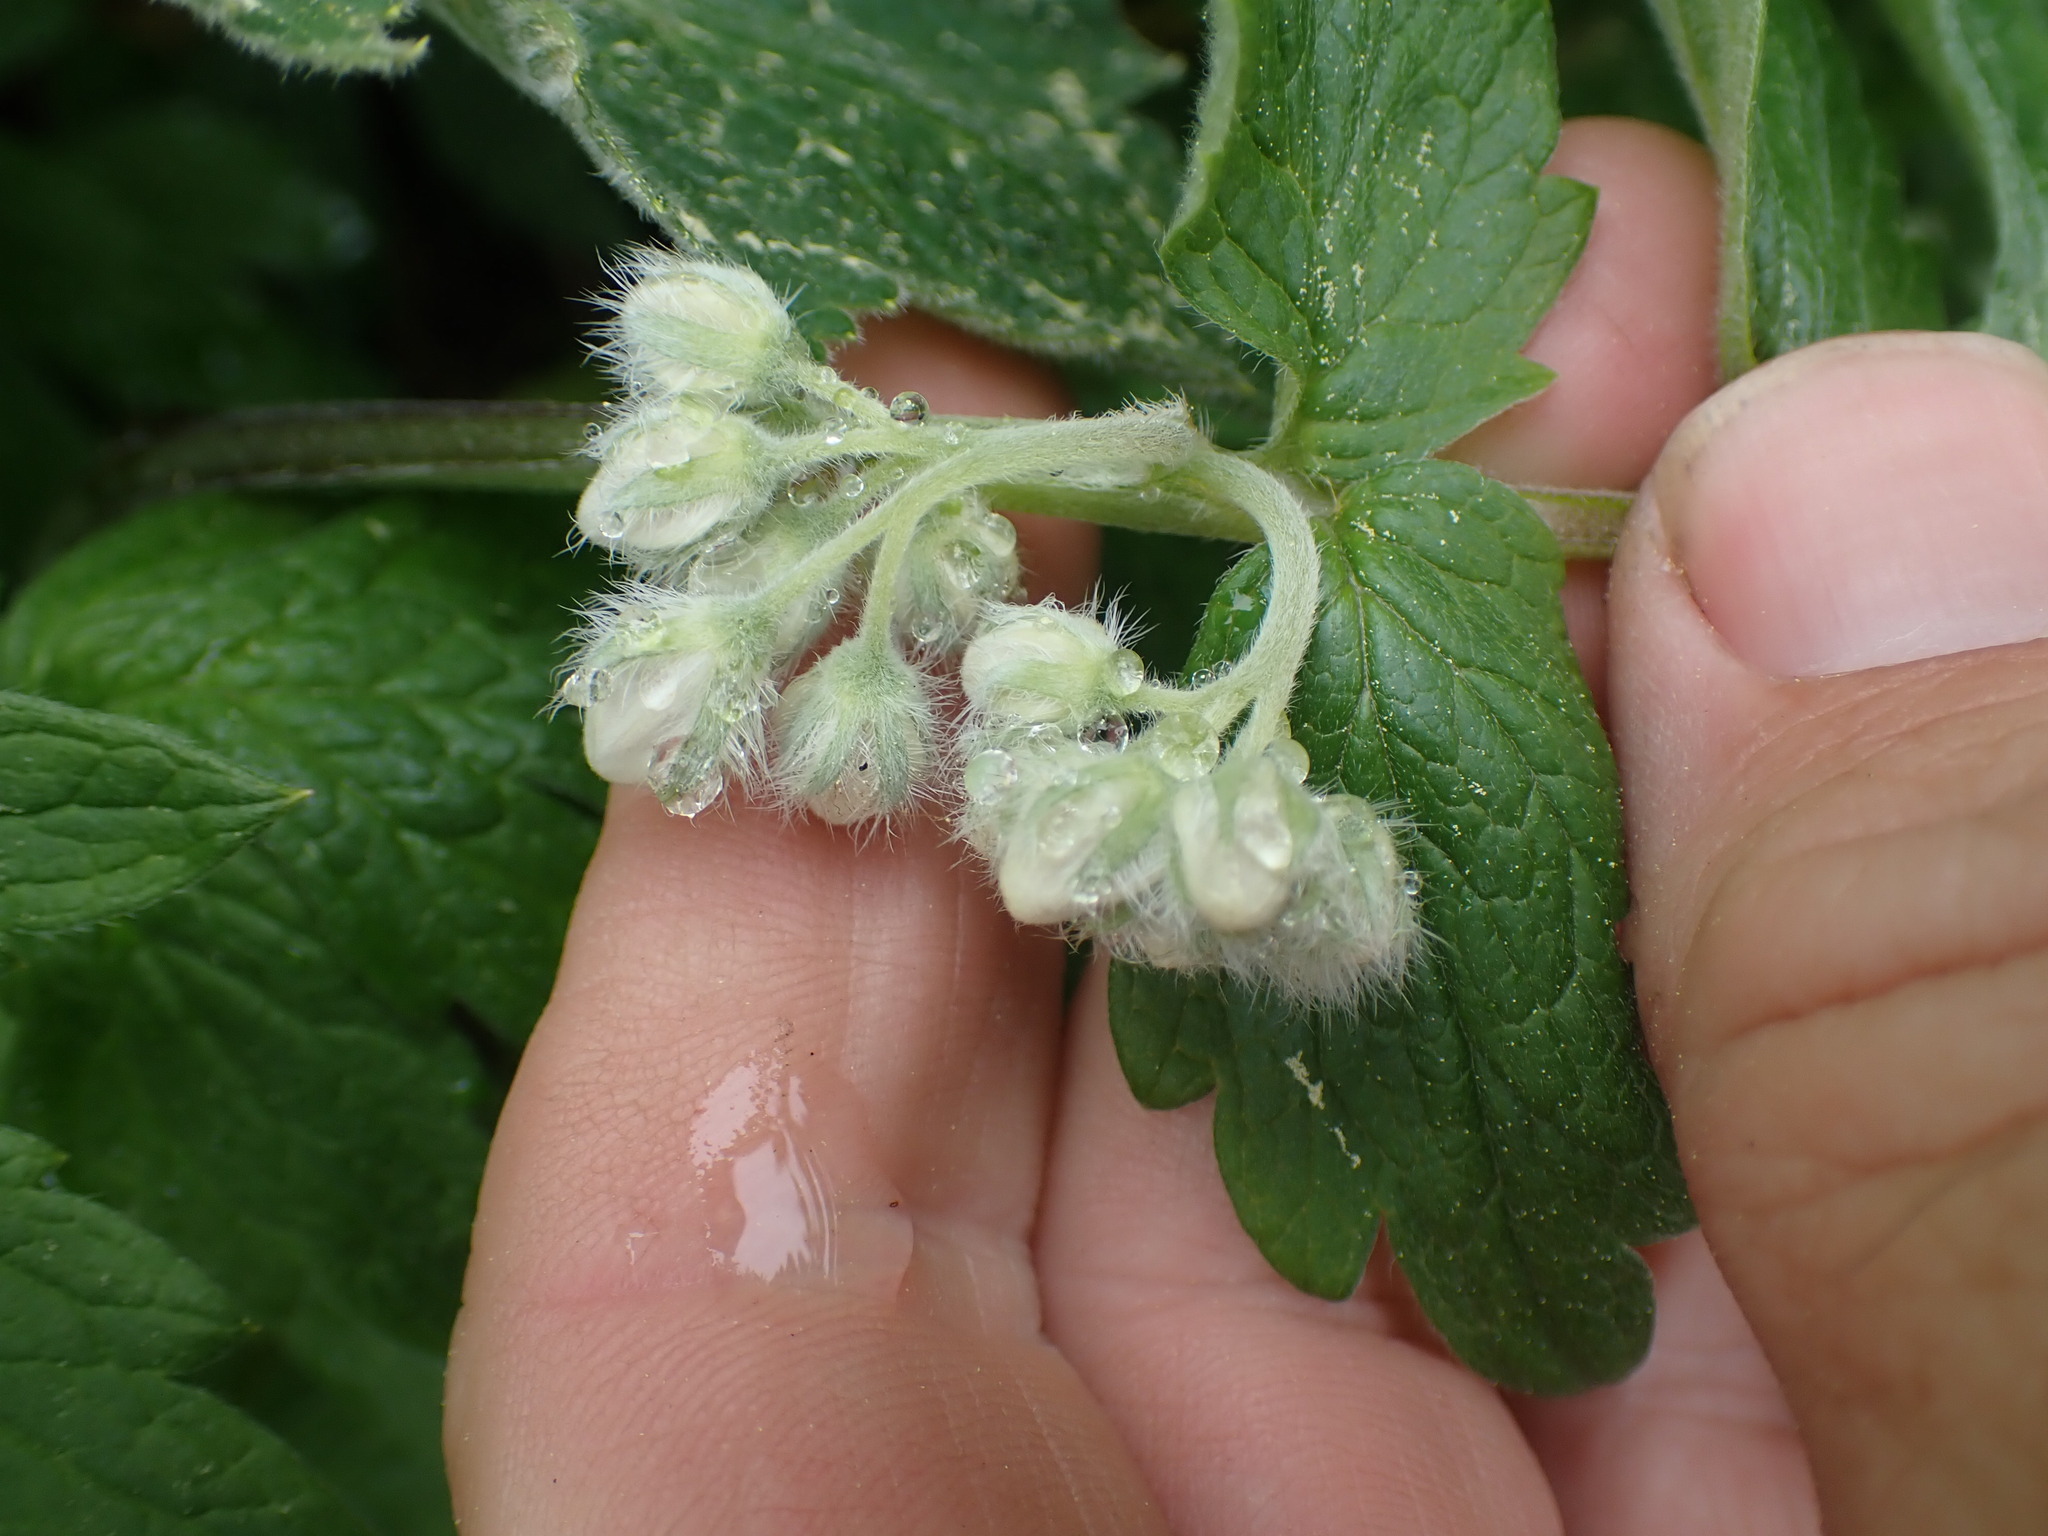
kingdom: Plantae
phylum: Tracheophyta
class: Magnoliopsida
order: Boraginales
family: Hydrophyllaceae
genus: Hydrophyllum
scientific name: Hydrophyllum fendleri
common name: Fendler's waterleaf
